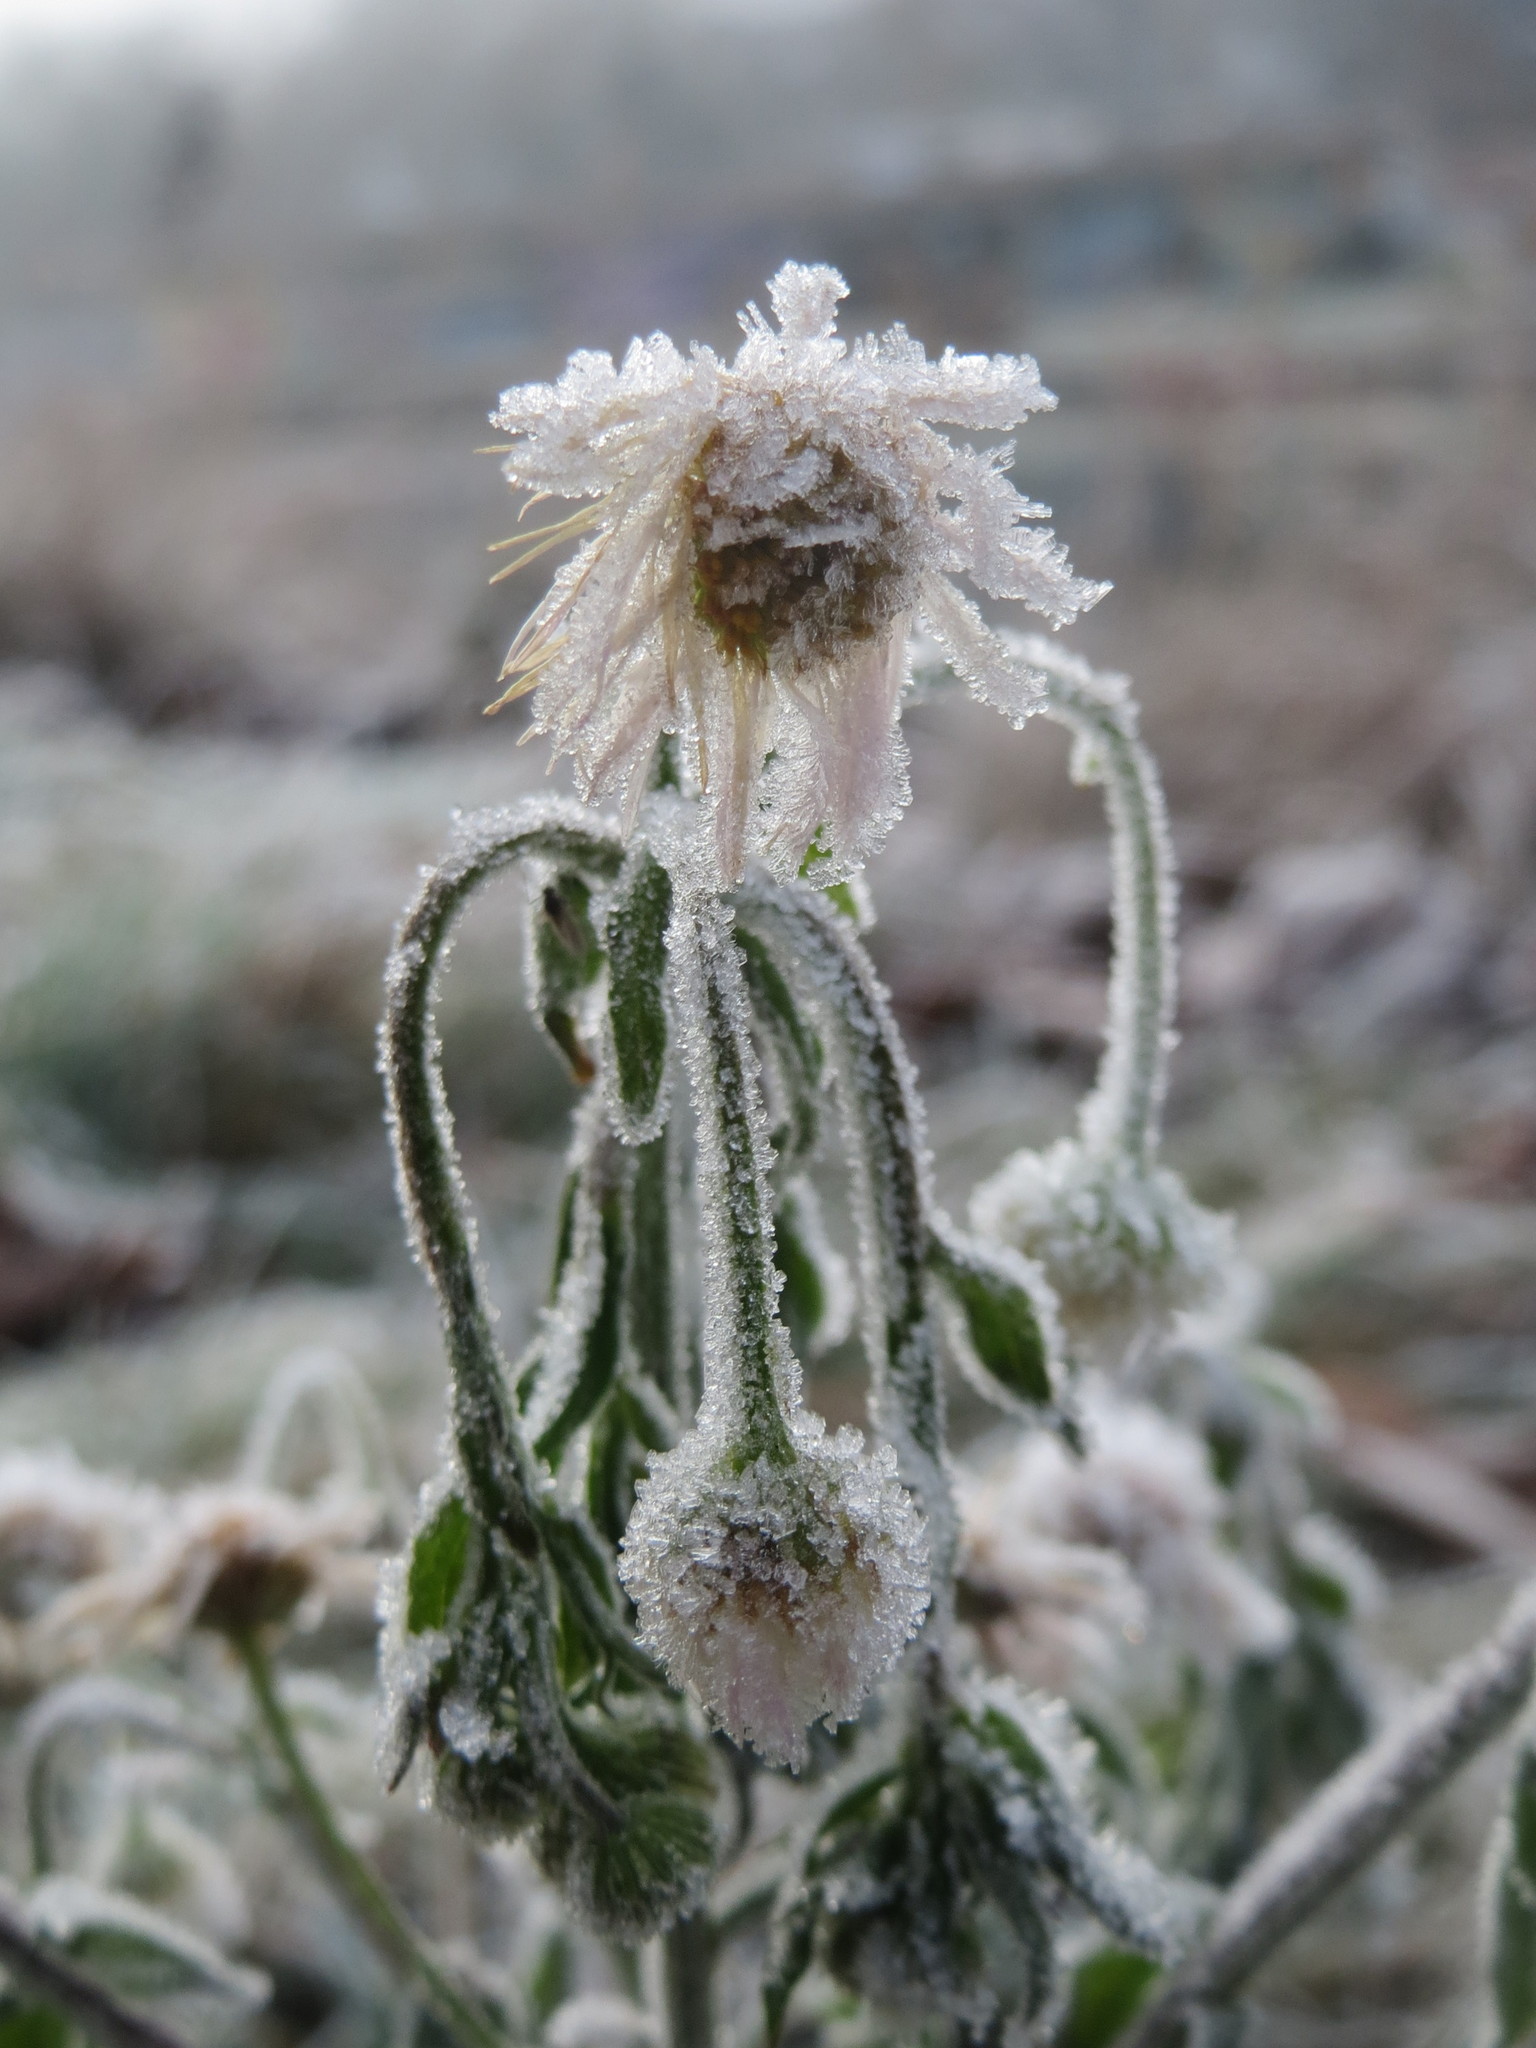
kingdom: Plantae
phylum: Tracheophyta
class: Magnoliopsida
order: Asterales
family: Asteraceae
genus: Erigeron
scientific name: Erigeron annuus
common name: Tall fleabane
